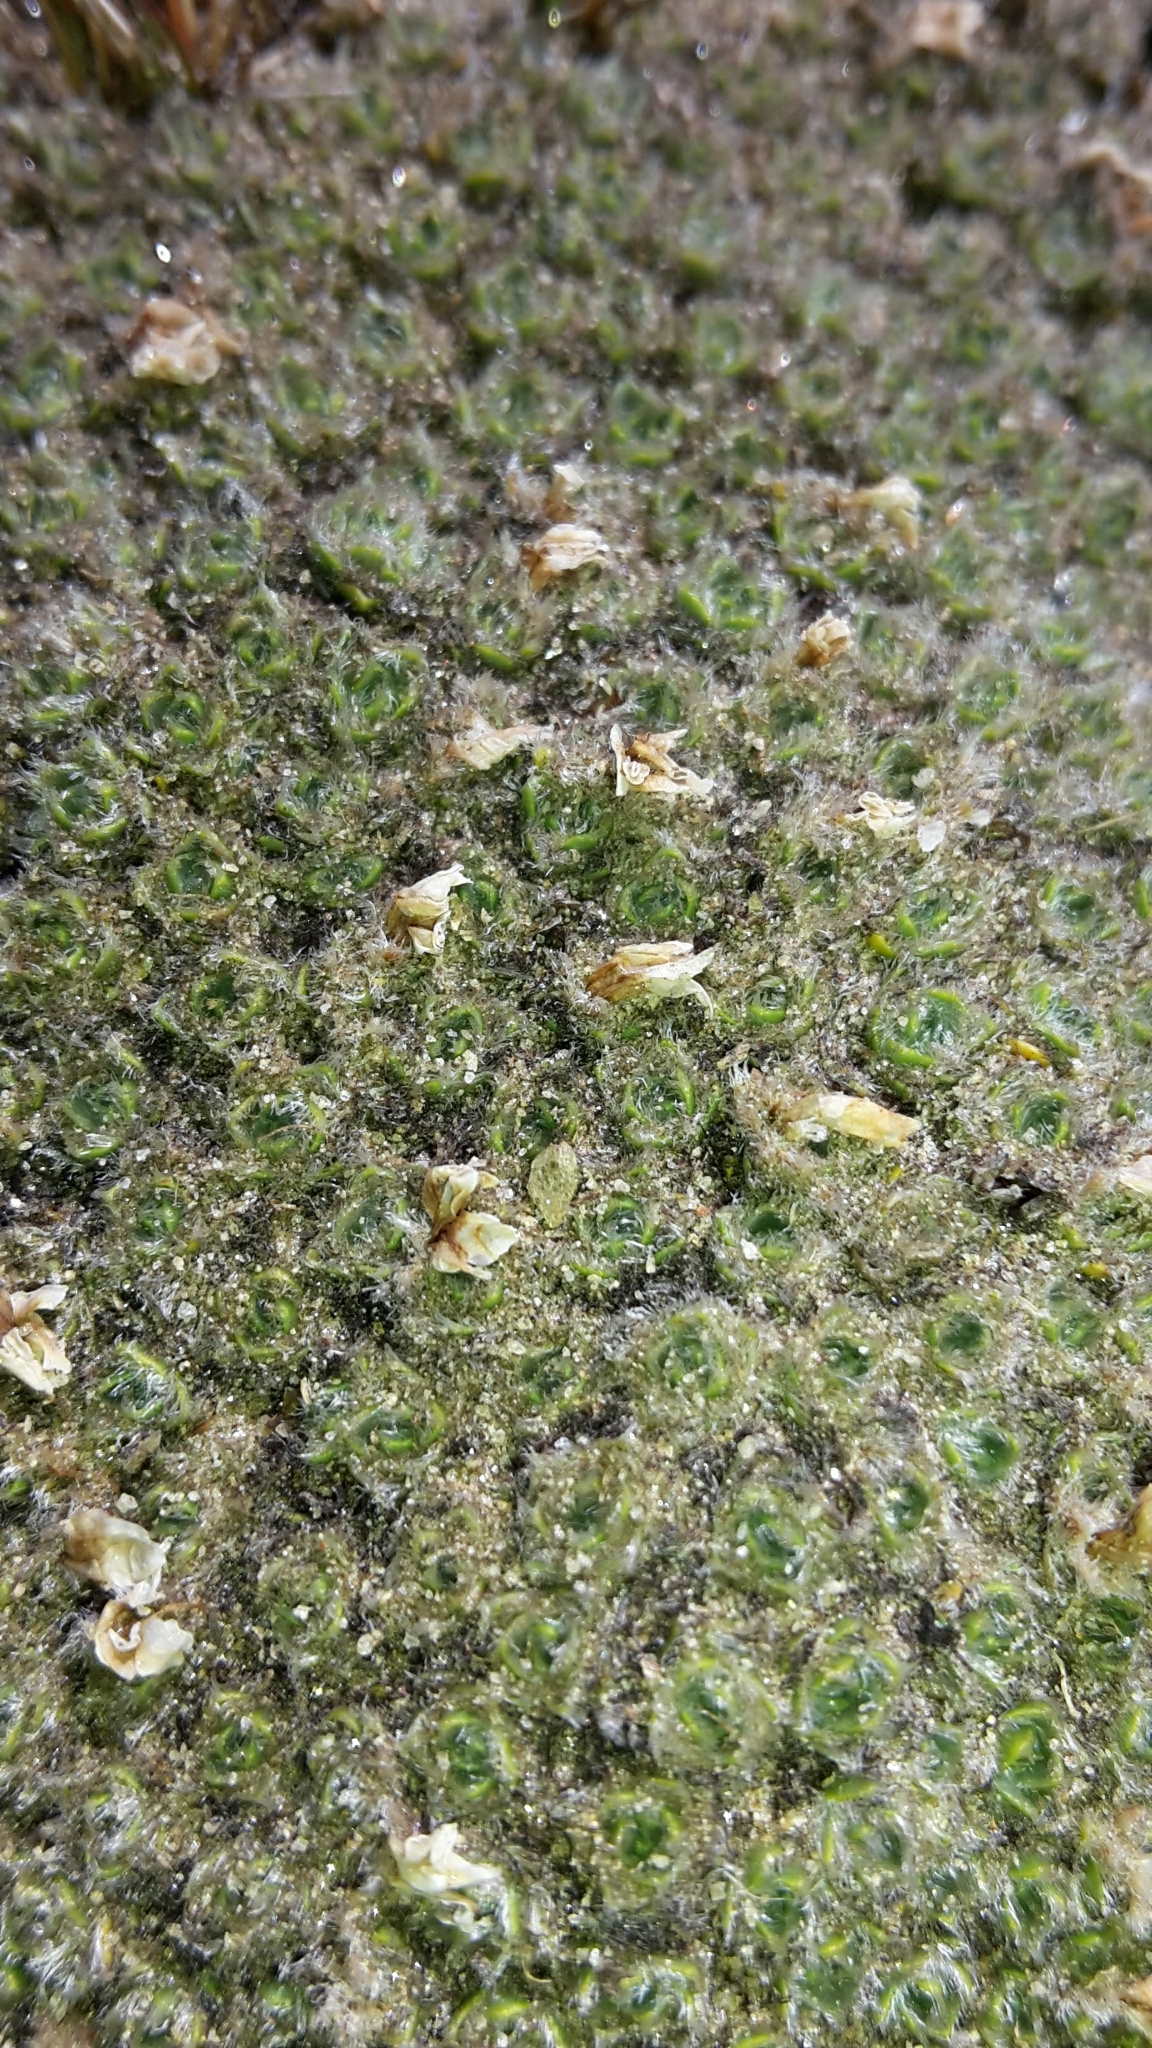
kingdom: Plantae
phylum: Tracheophyta
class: Magnoliopsida
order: Lamiales
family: Plantaginaceae
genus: Veronica
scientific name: Veronica thomsonii
